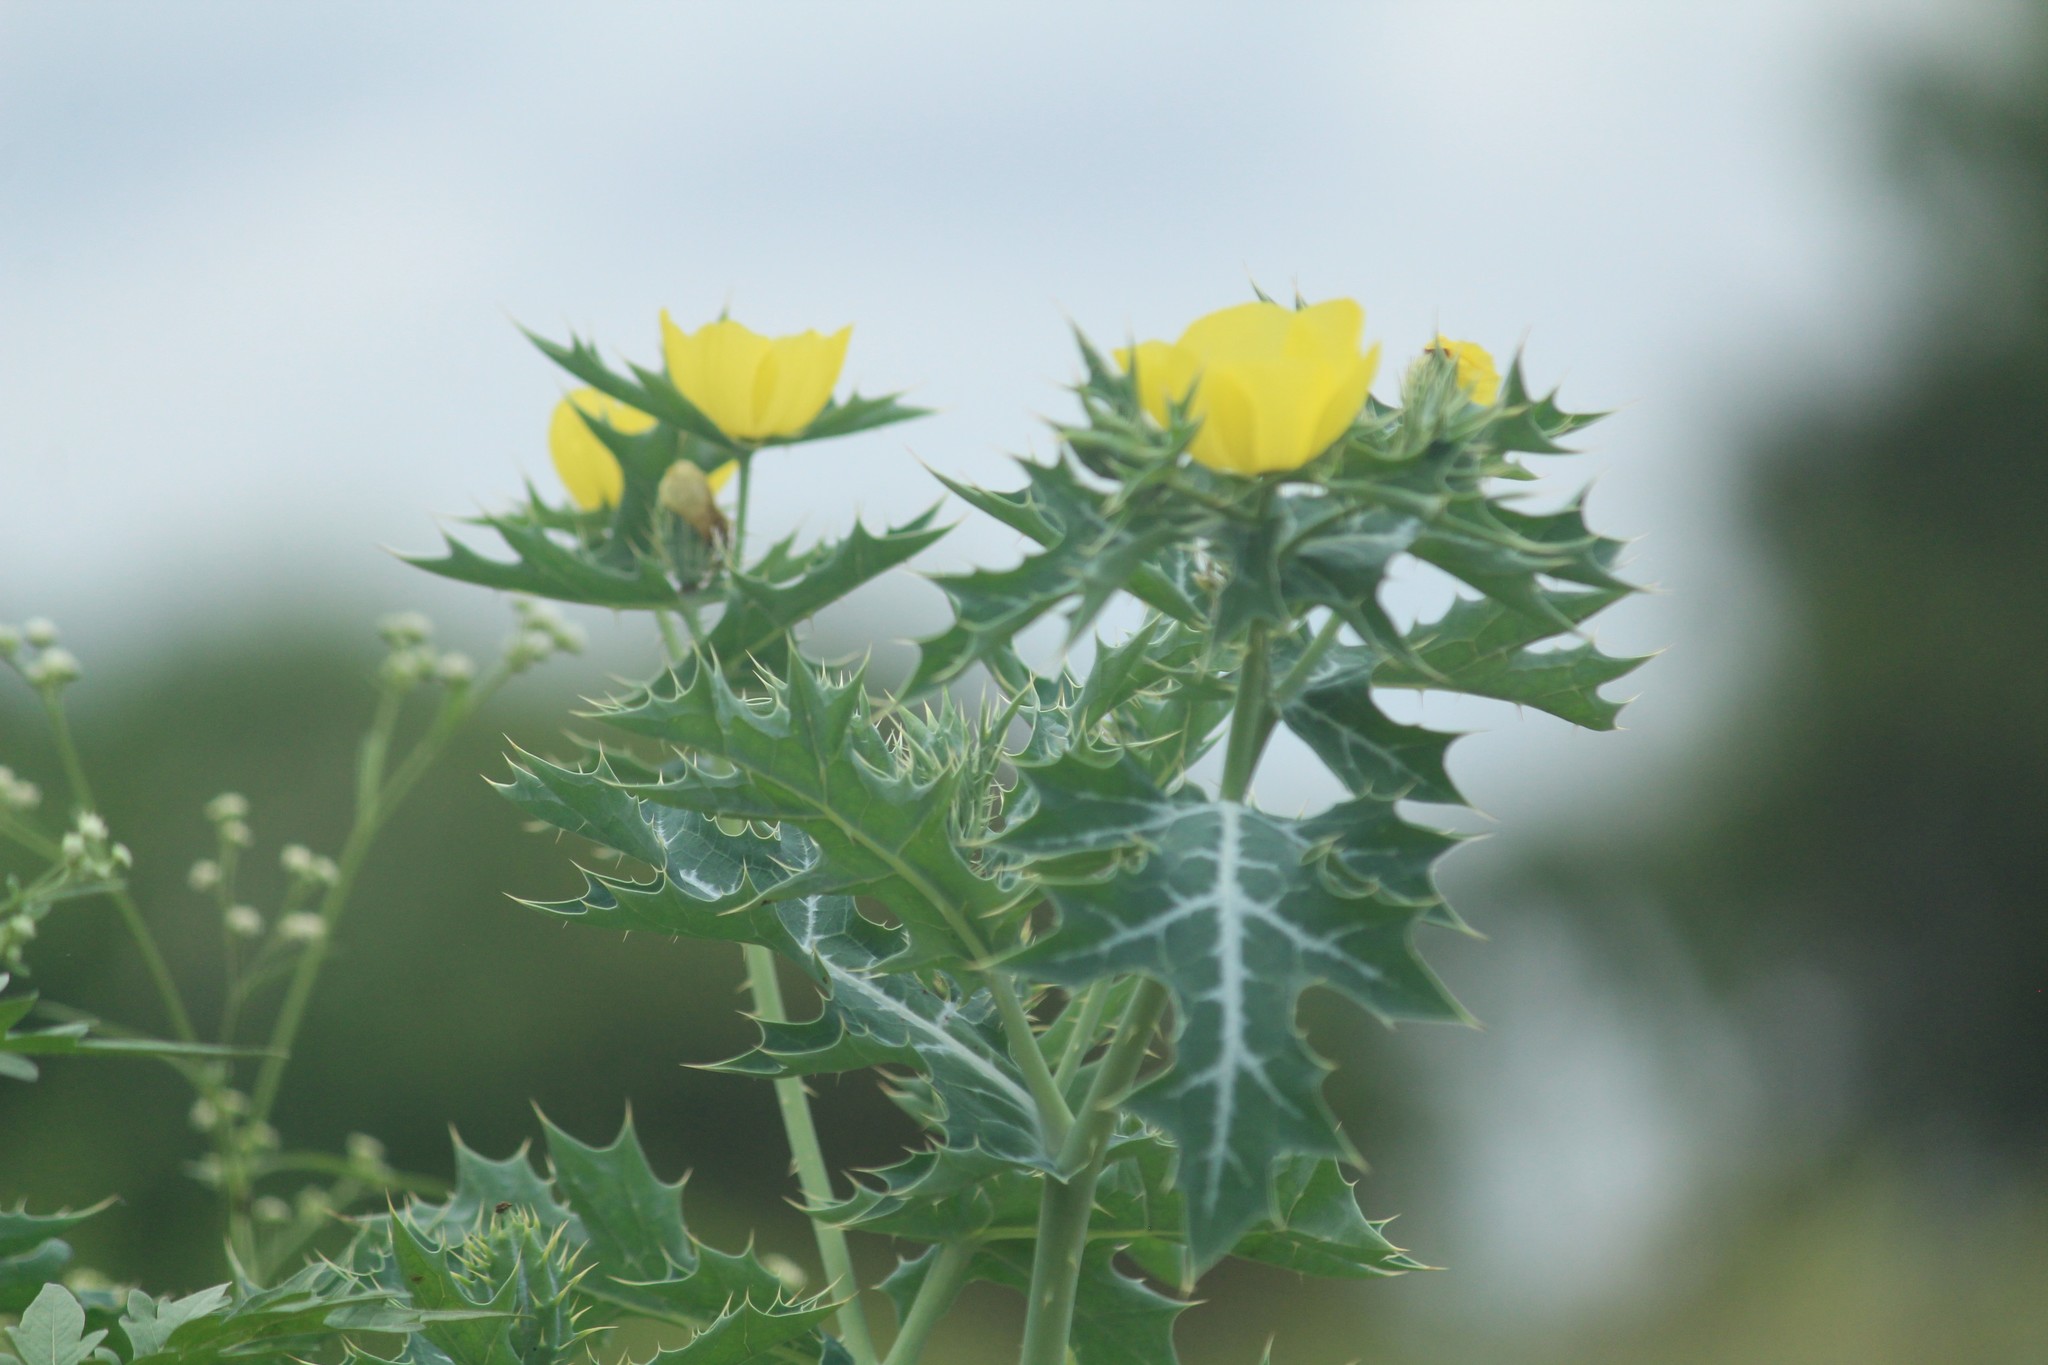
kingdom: Plantae
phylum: Tracheophyta
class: Magnoliopsida
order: Ranunculales
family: Papaveraceae
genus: Argemone
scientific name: Argemone mexicana
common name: Mexican poppy
